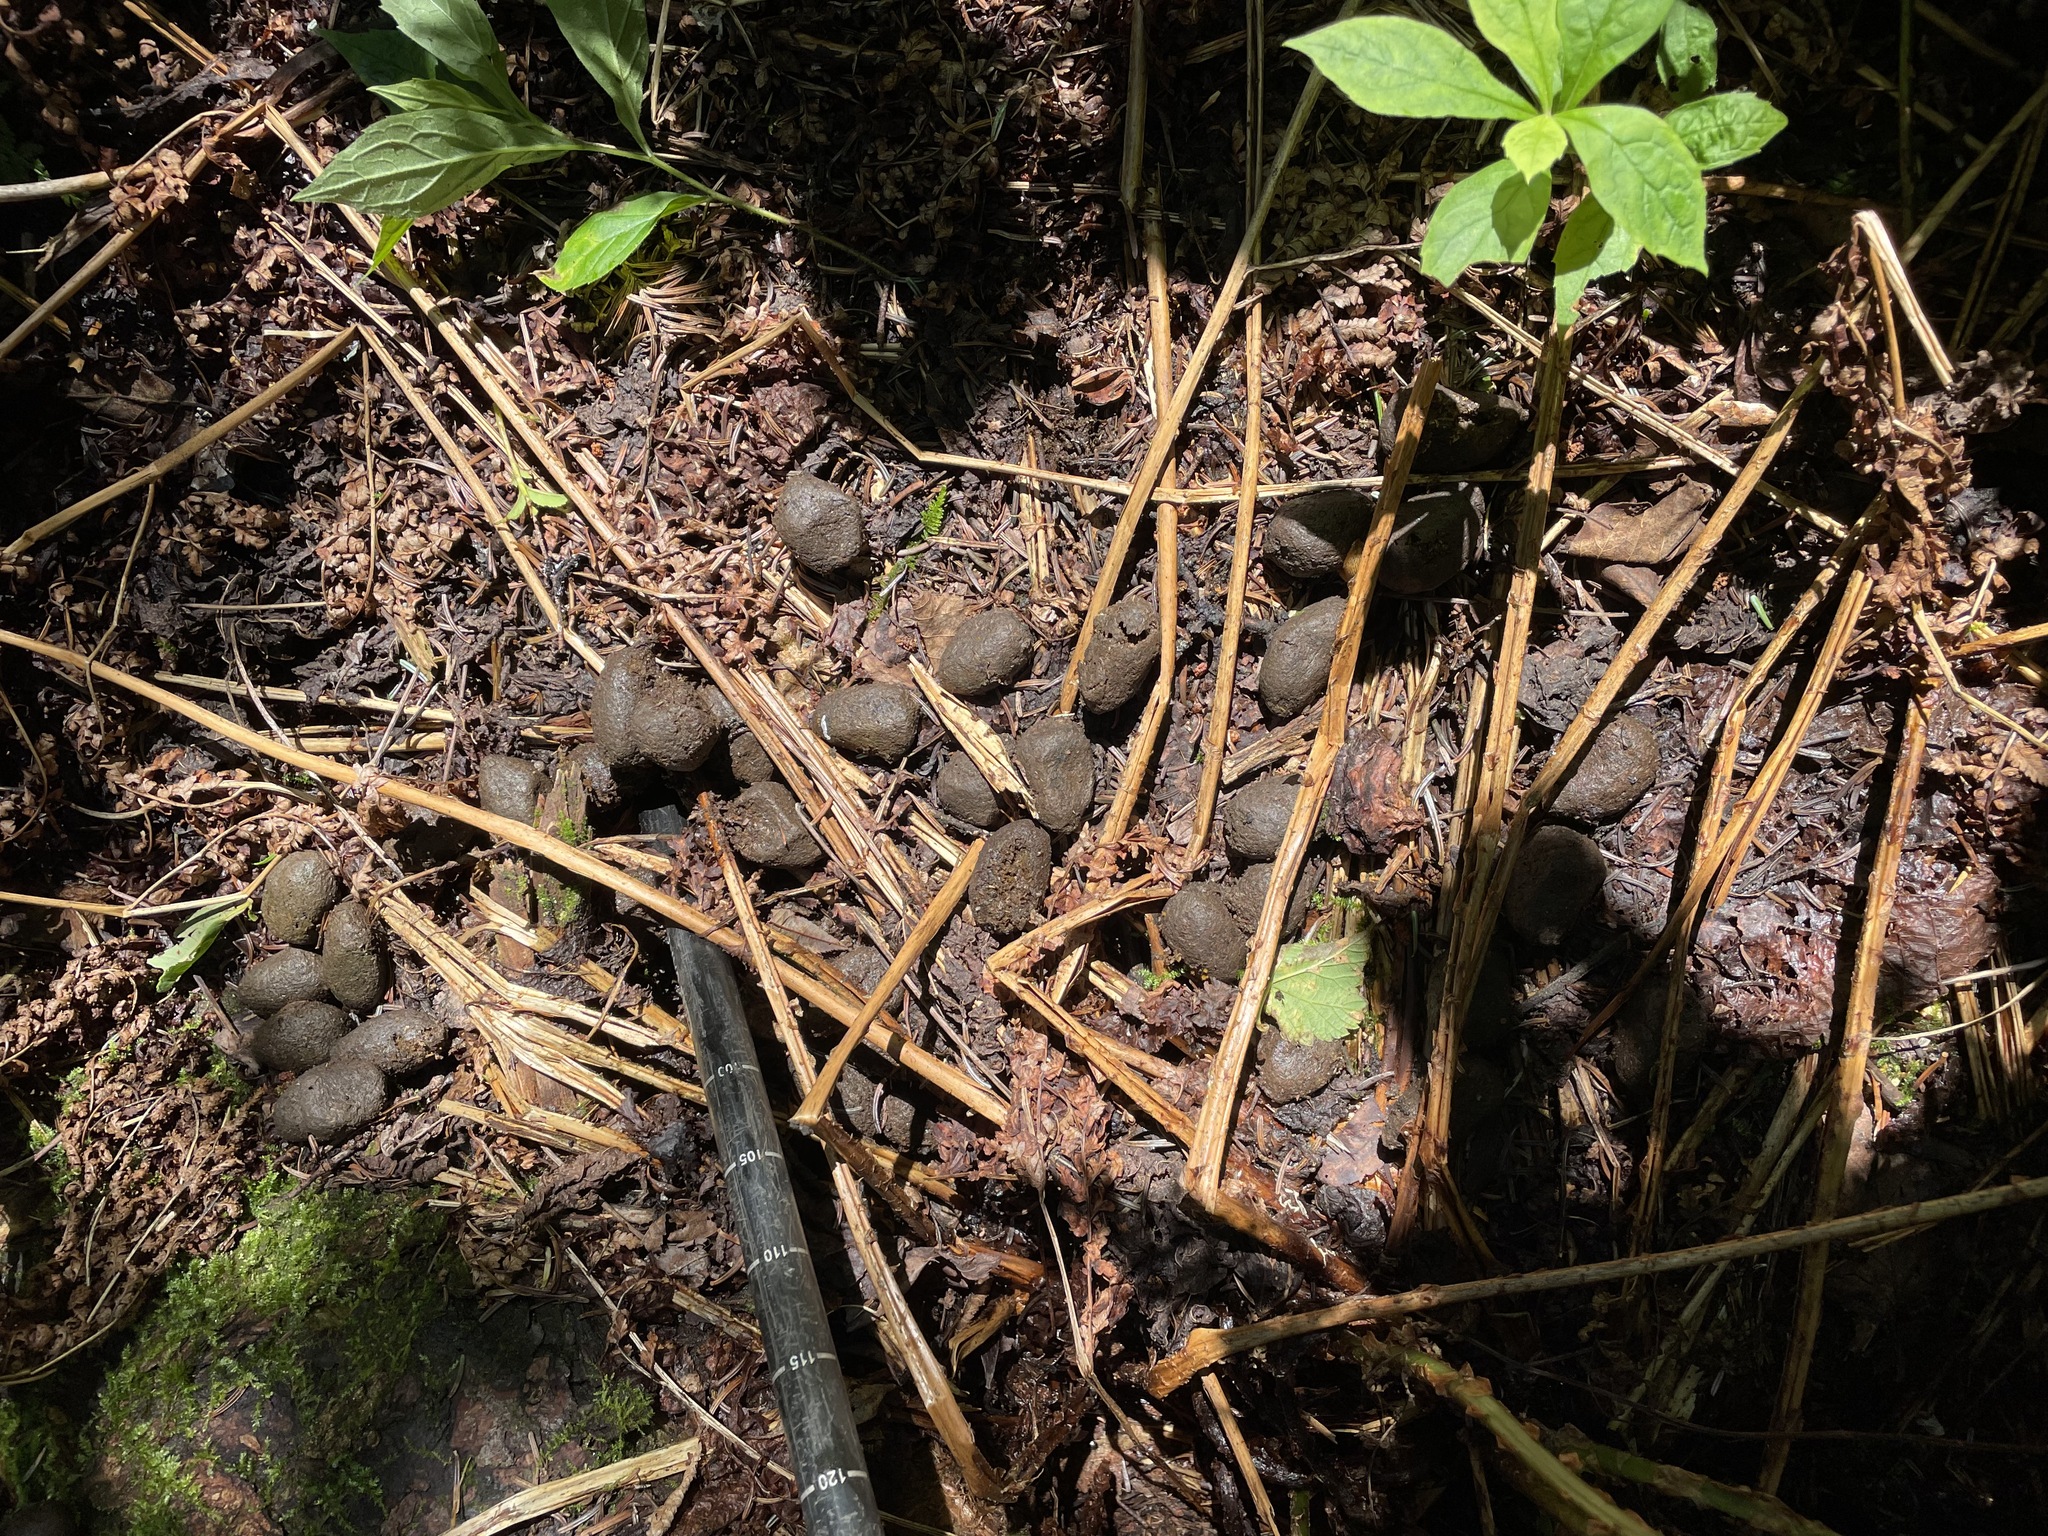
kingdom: Animalia
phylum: Chordata
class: Mammalia
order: Artiodactyla
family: Cervidae
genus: Alces
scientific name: Alces alces
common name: Moose
